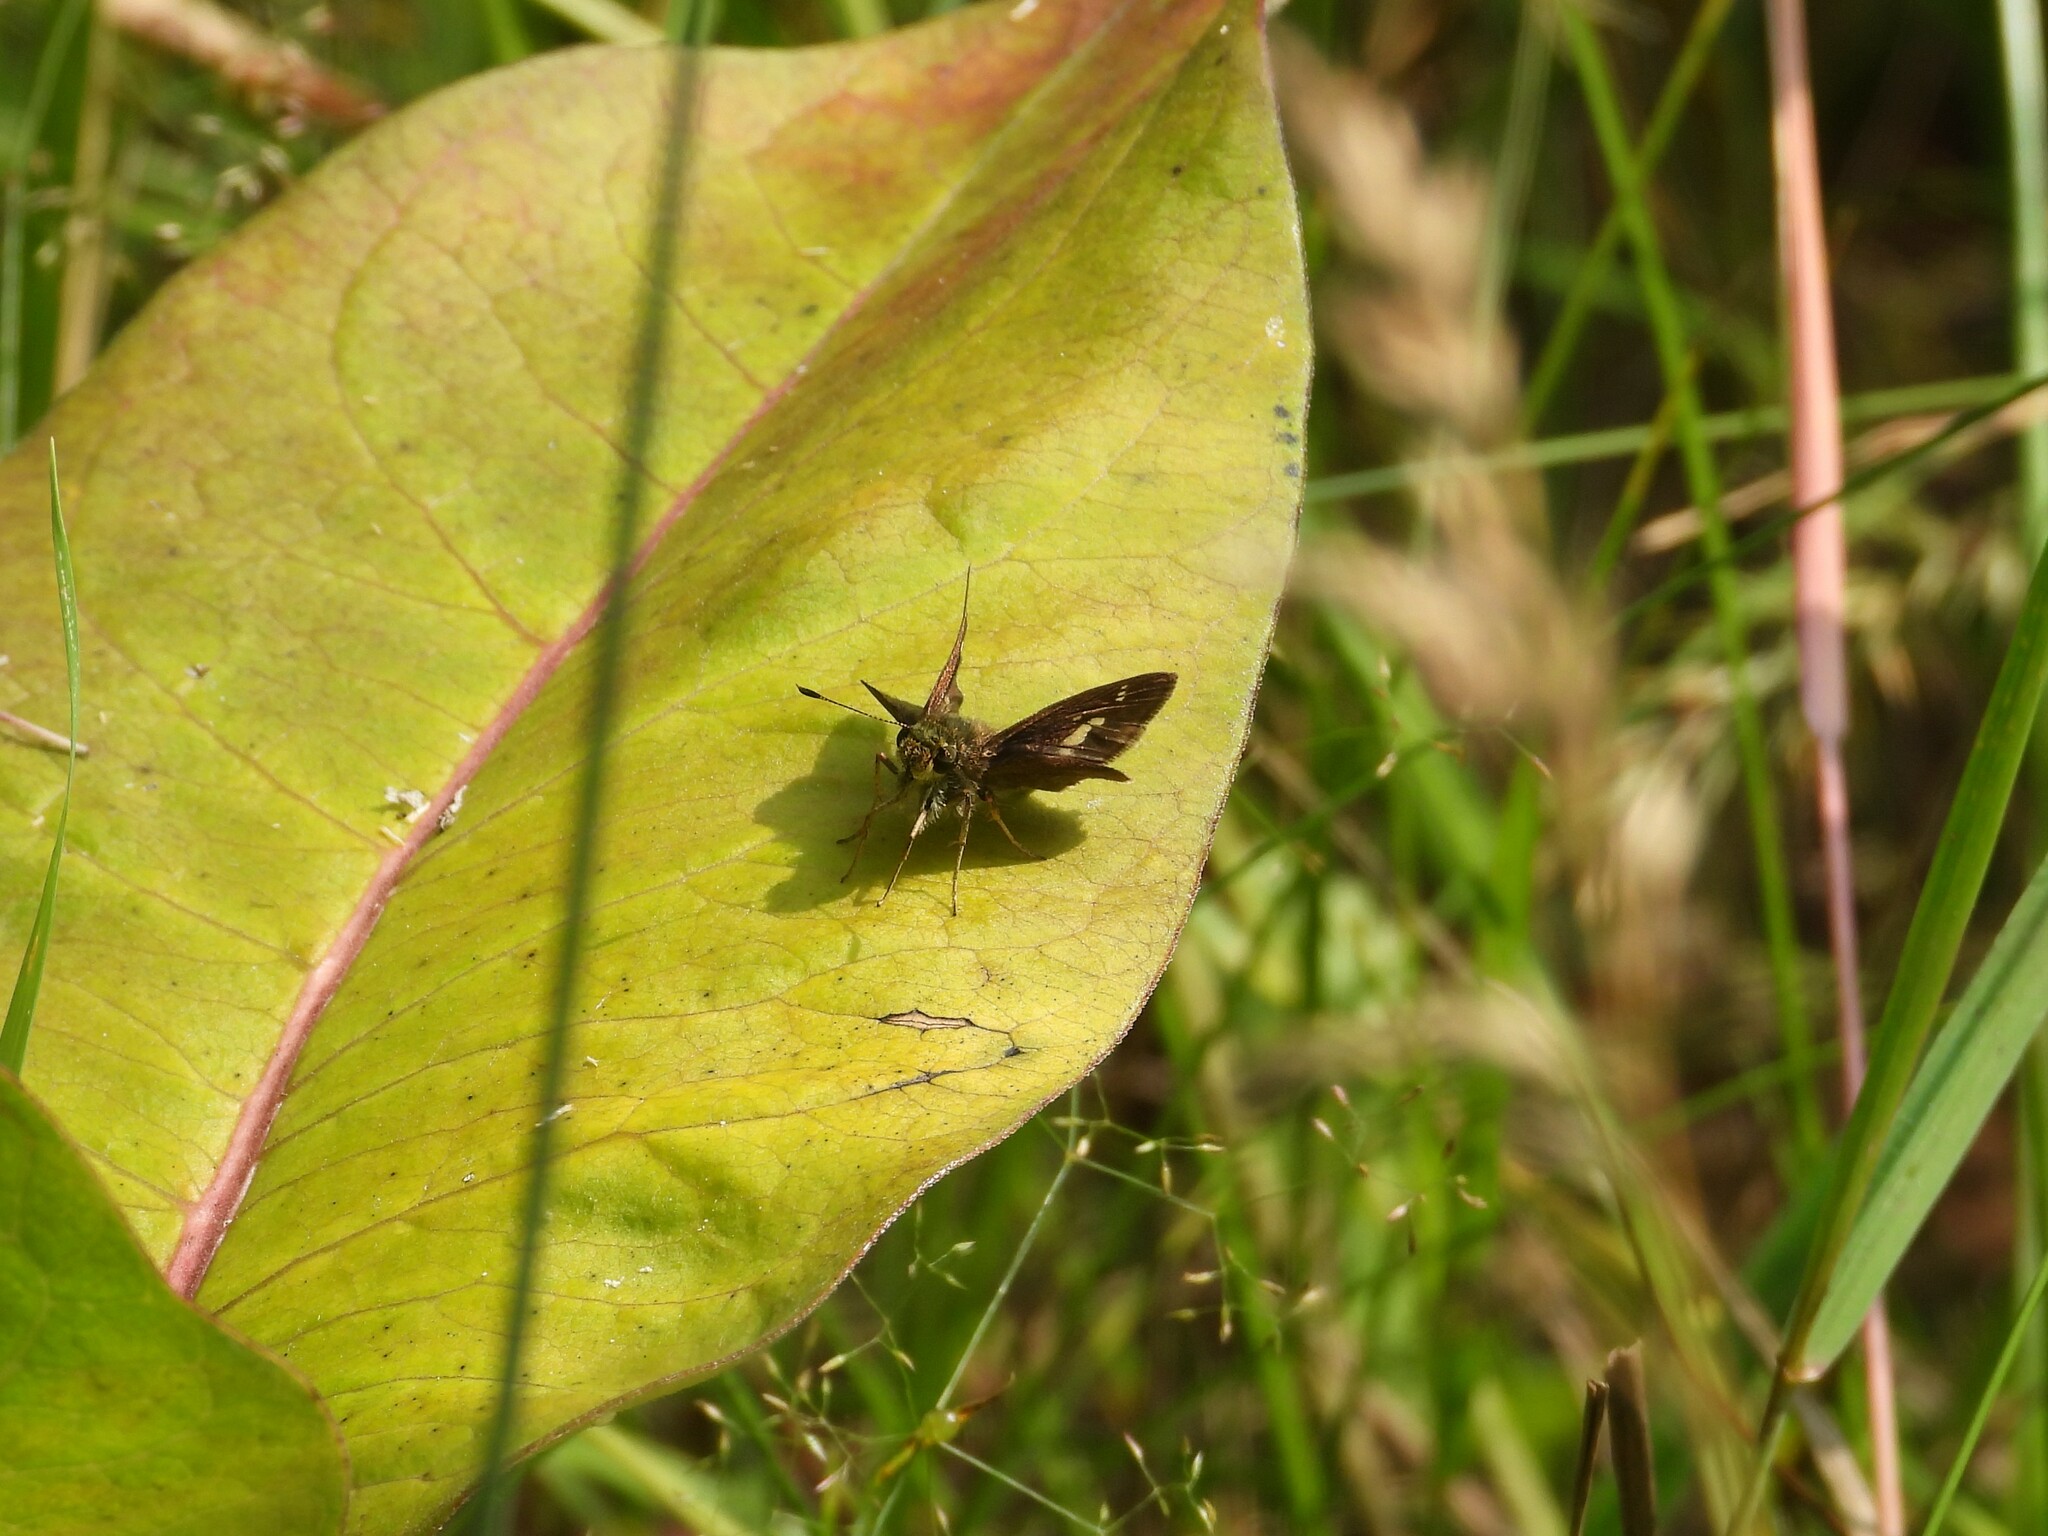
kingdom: Animalia
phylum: Arthropoda
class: Insecta
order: Lepidoptera
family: Hesperiidae
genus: Vernia
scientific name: Vernia verna
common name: Little glassywing
